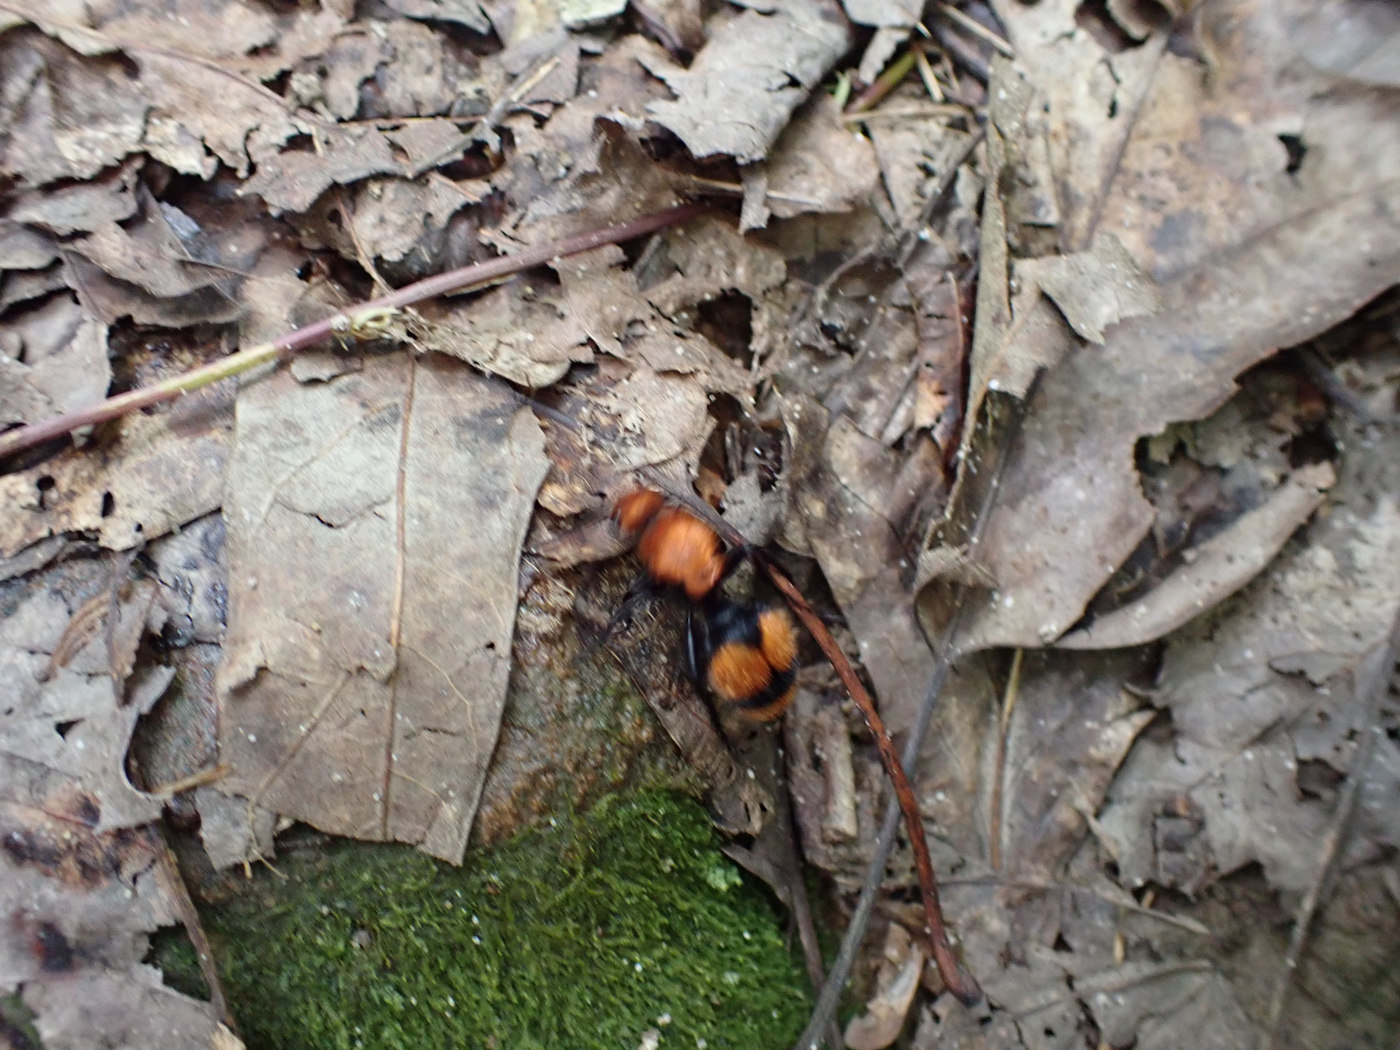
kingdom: Animalia
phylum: Arthropoda
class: Insecta
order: Hymenoptera
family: Mutillidae
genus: Dasymutilla
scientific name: Dasymutilla occidentalis
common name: Common eastern velvet ant
